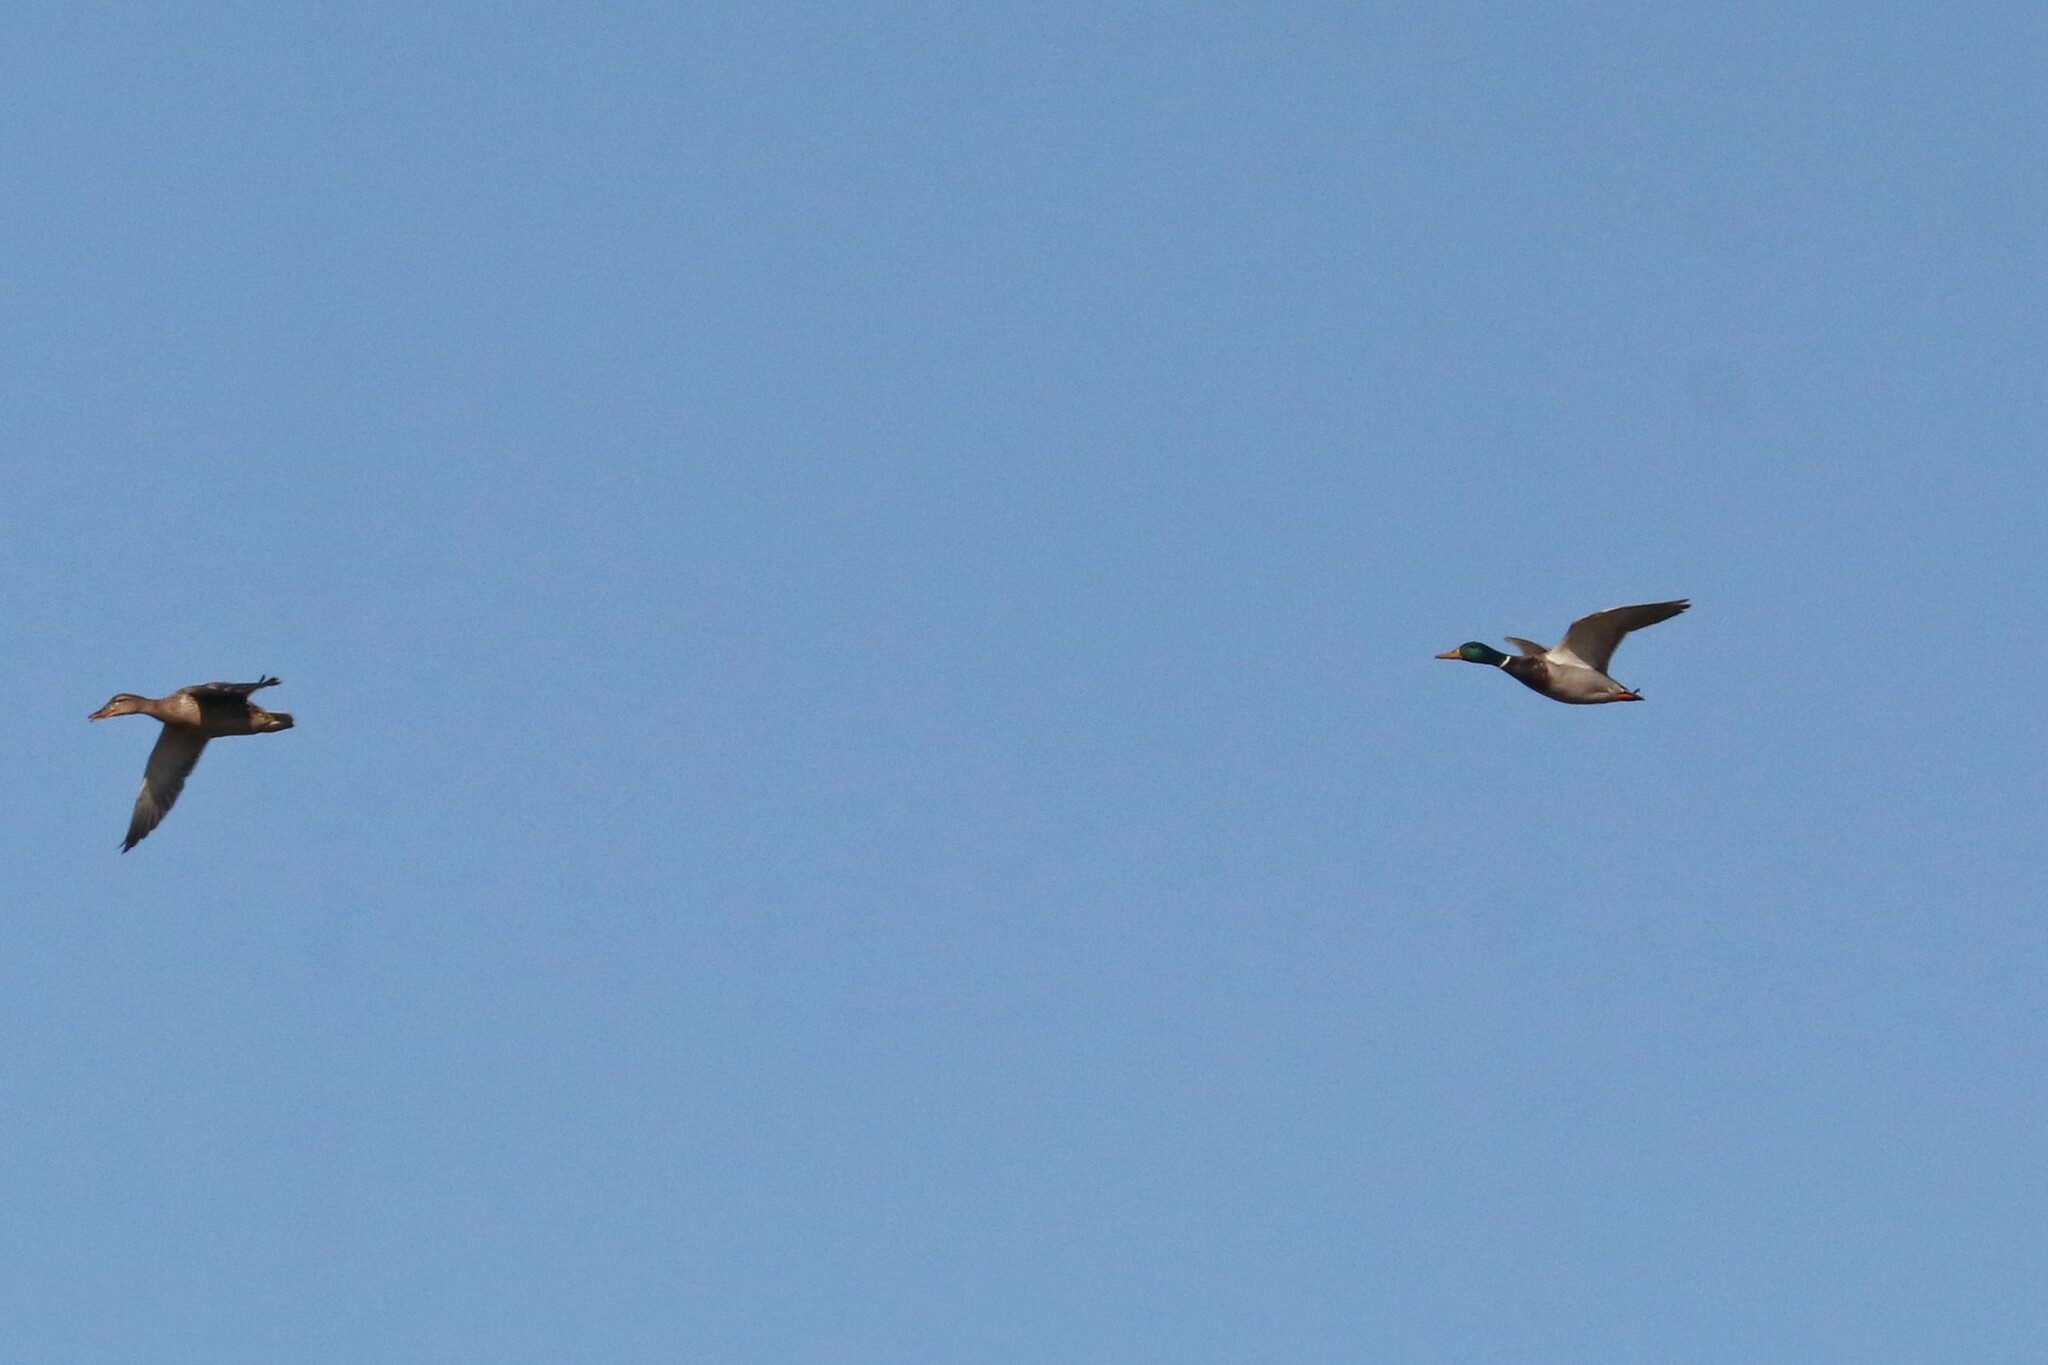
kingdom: Animalia
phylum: Chordata
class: Aves
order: Anseriformes
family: Anatidae
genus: Anas
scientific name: Anas platyrhynchos
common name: Mallard
